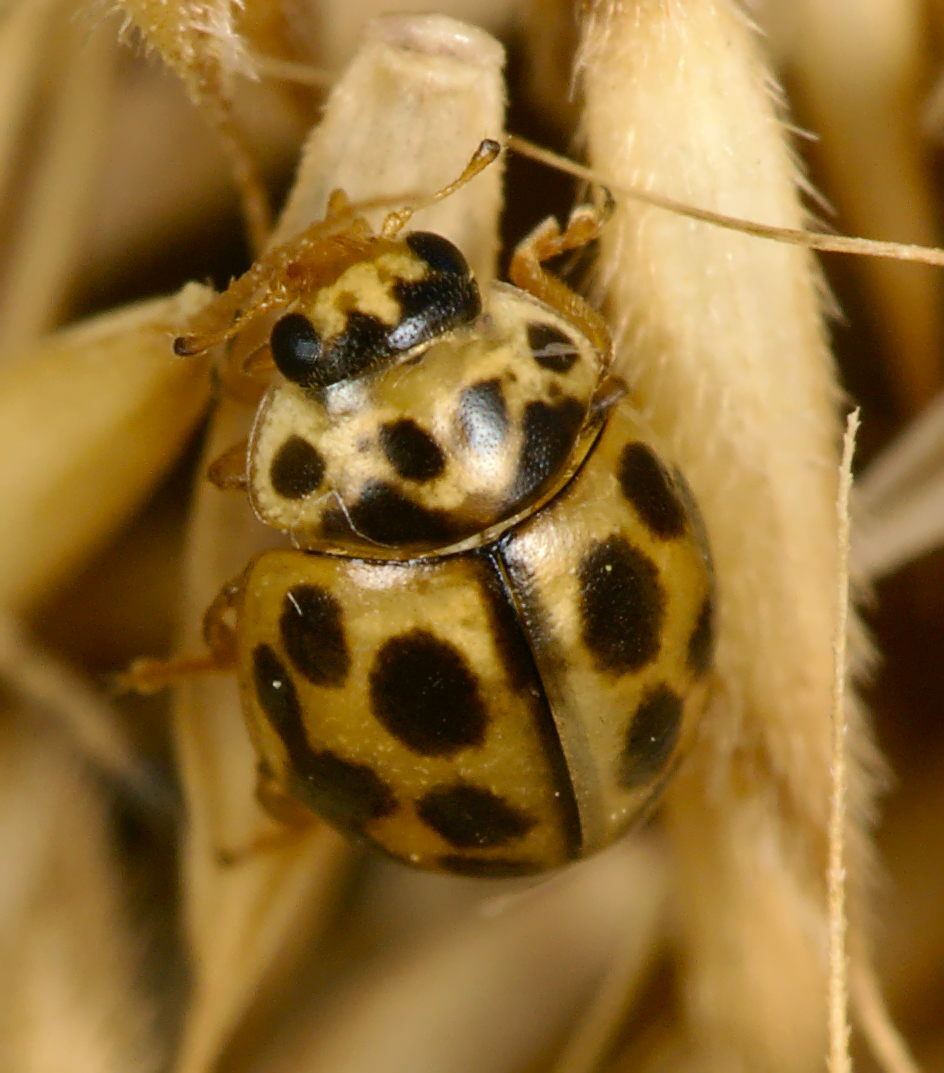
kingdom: Animalia
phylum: Arthropoda
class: Insecta
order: Coleoptera
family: Coccinellidae
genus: Tytthaspis
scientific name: Tytthaspis sedecimpunctata
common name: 16-spot ladybird
